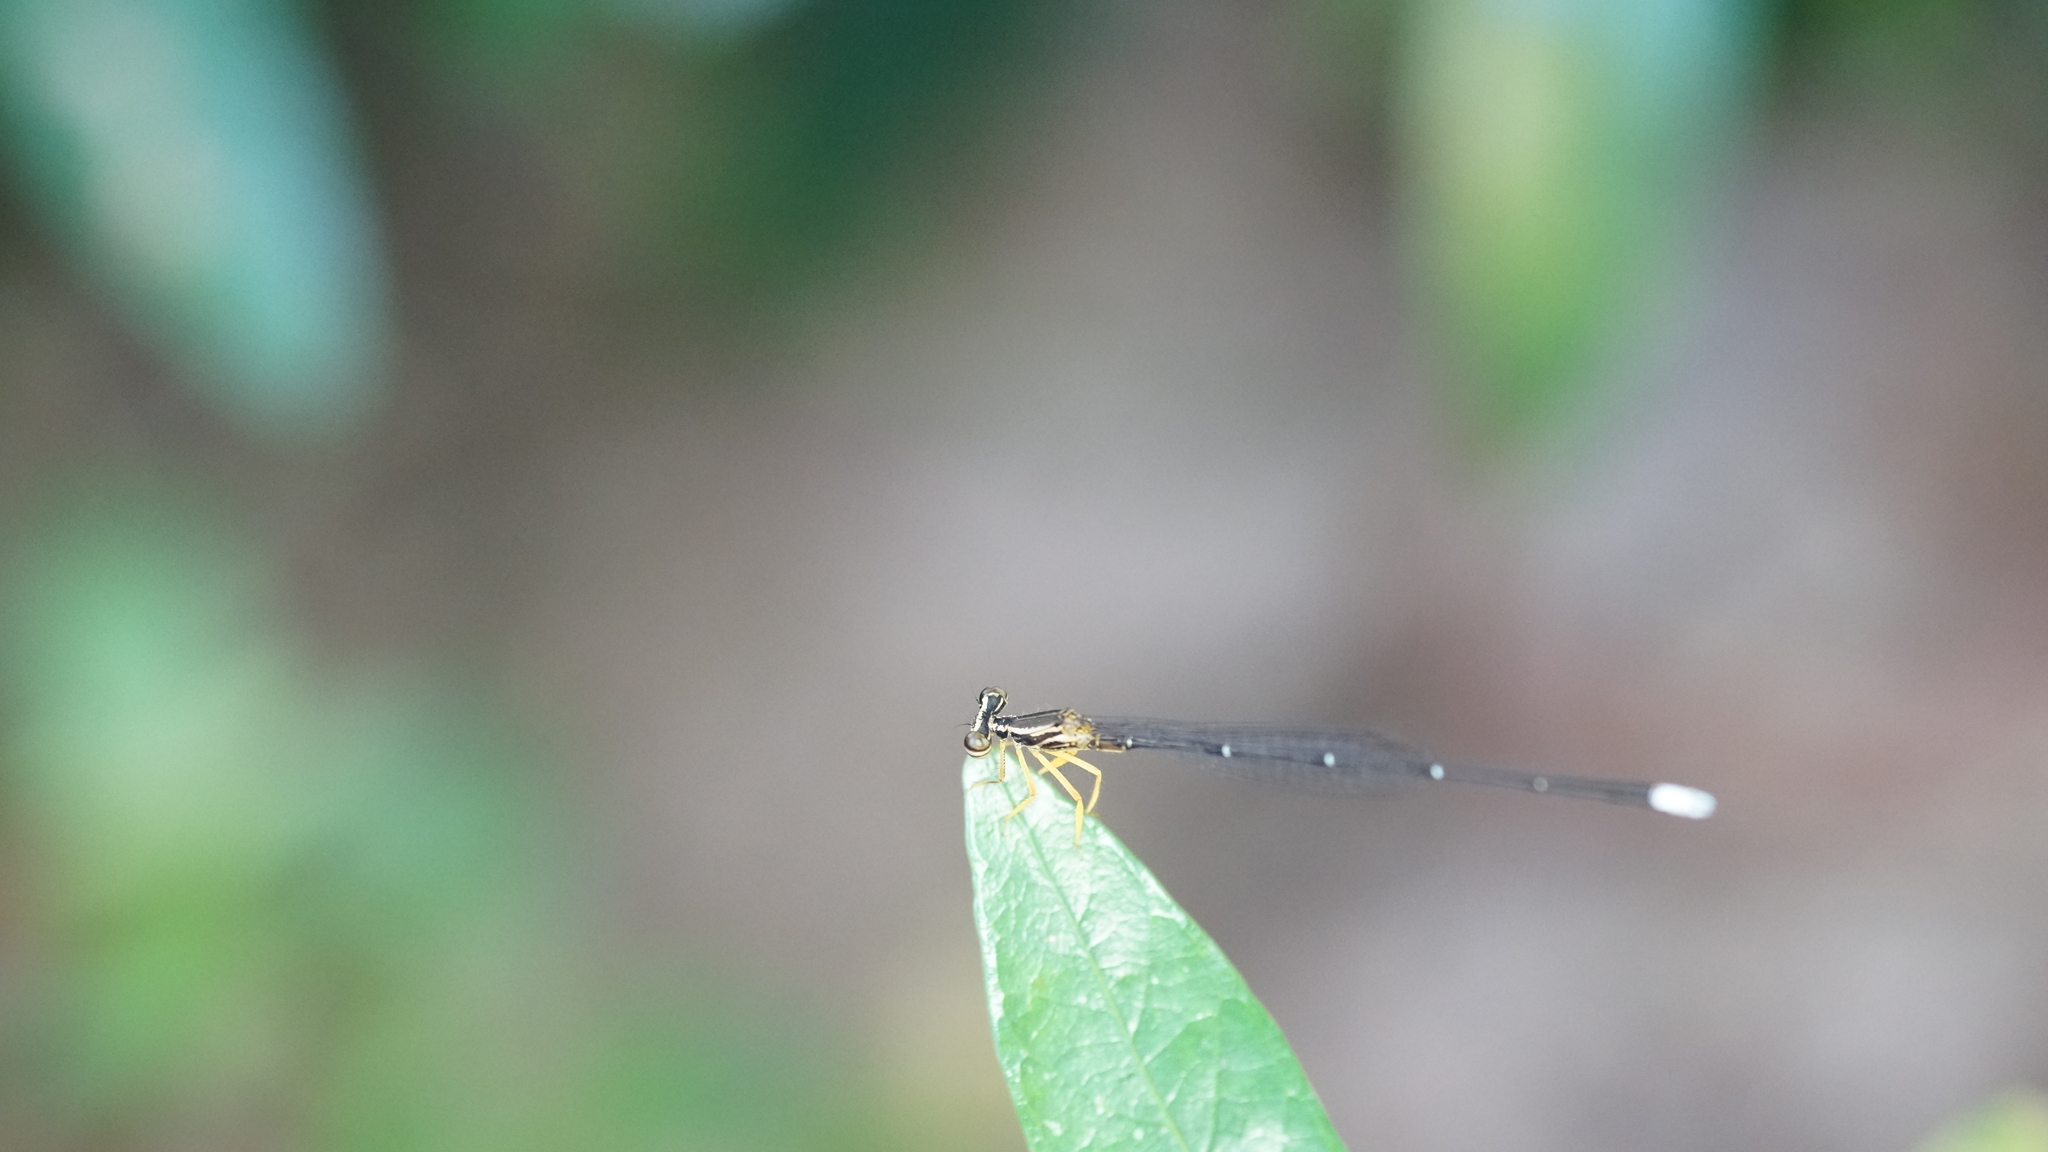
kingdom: Animalia
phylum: Arthropoda
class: Insecta
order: Odonata
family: Platycnemididae
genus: Copera
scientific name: Copera marginipes
